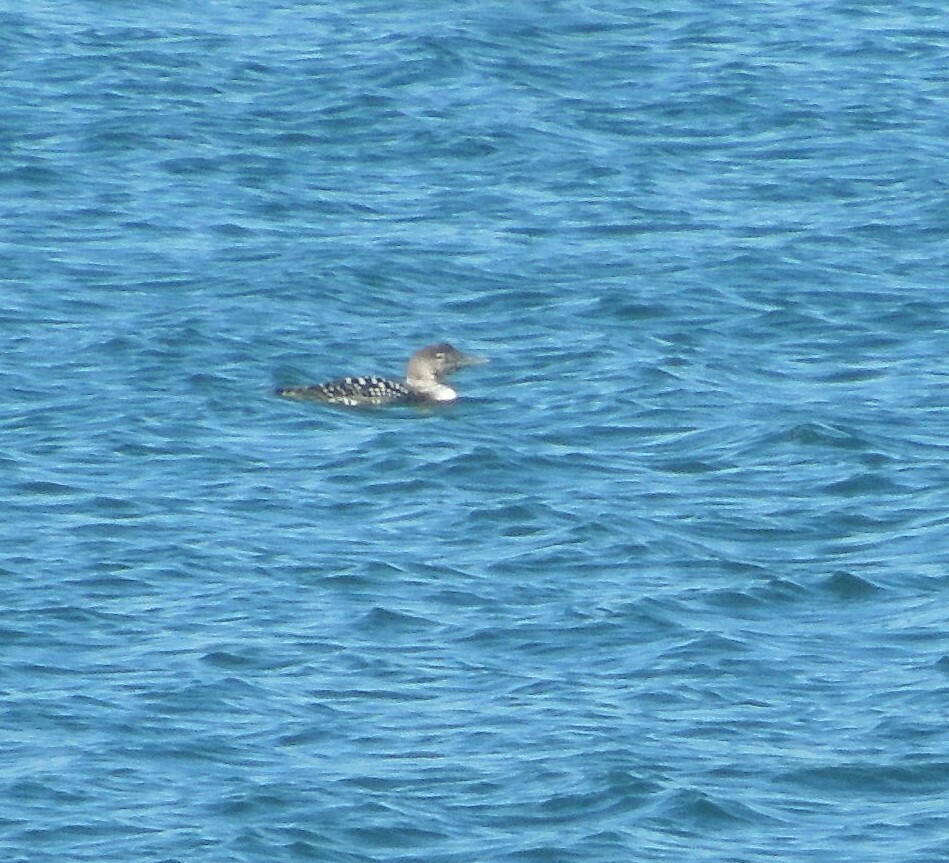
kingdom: Animalia
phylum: Chordata
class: Aves
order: Gaviiformes
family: Gaviidae
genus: Gavia
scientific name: Gavia immer
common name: Common loon
